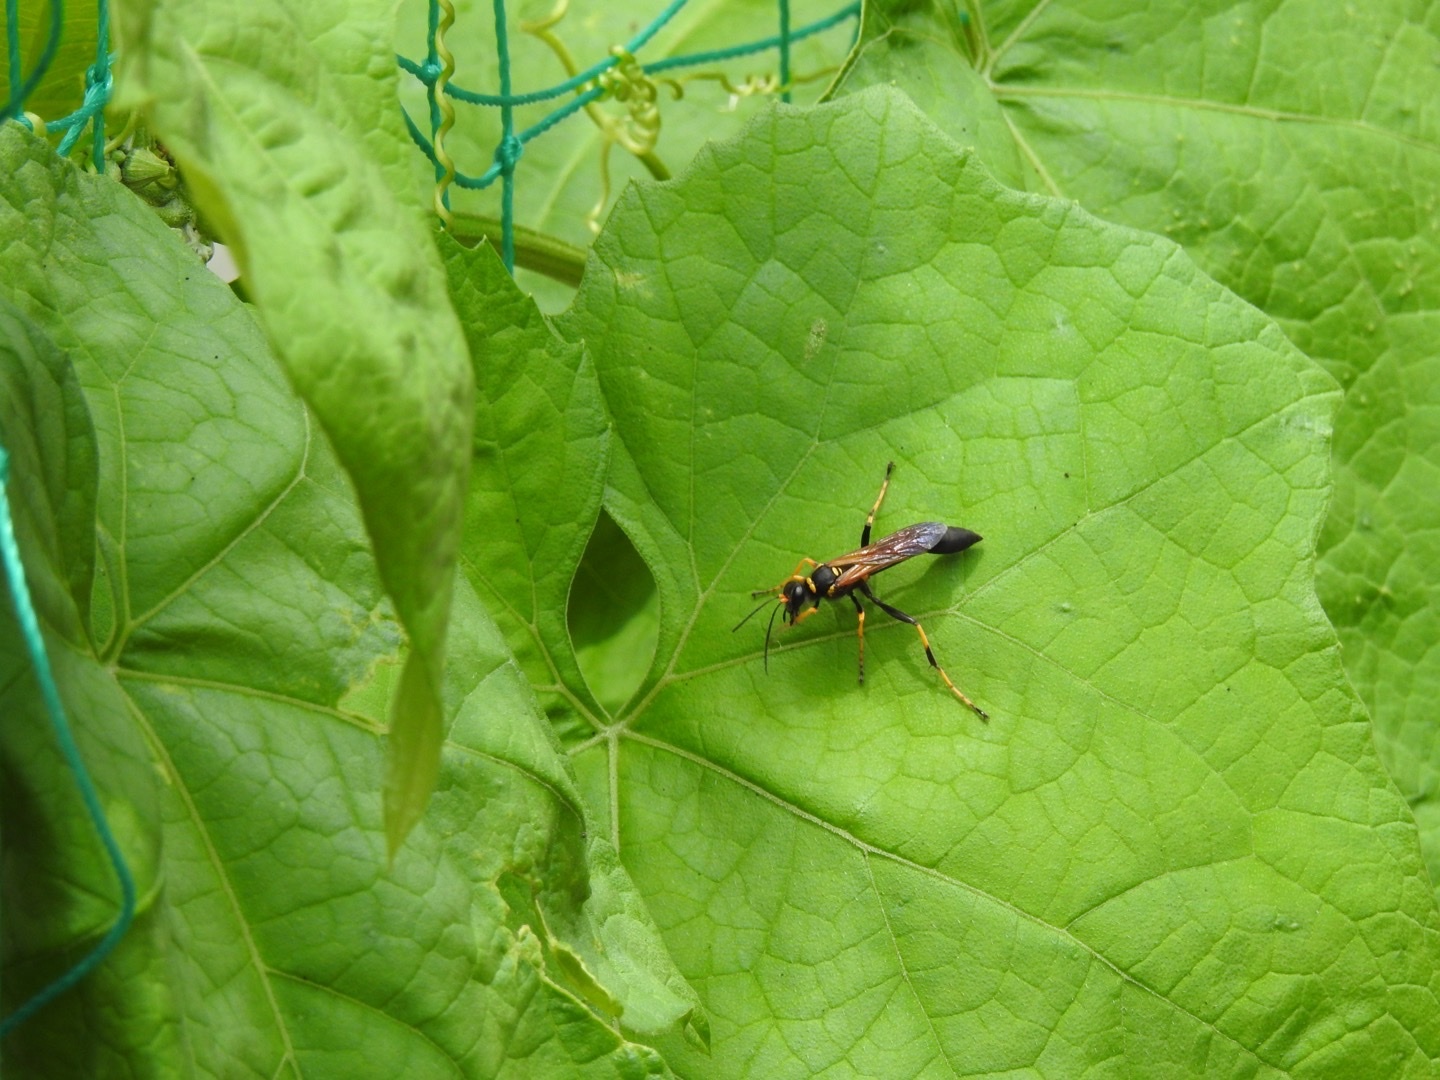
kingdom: Animalia
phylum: Arthropoda
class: Insecta
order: Hymenoptera
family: Sphecidae
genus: Sceliphron
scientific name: Sceliphron caementarium
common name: Mud dauber
